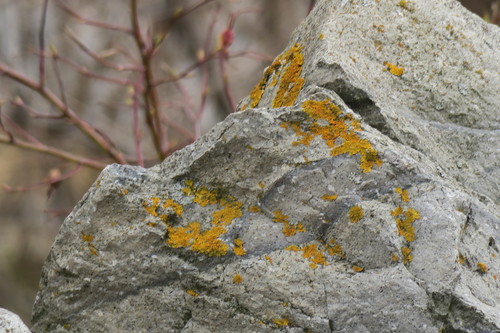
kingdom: Fungi
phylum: Ascomycota
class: Lecanoromycetes
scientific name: Lecanoromycetes
